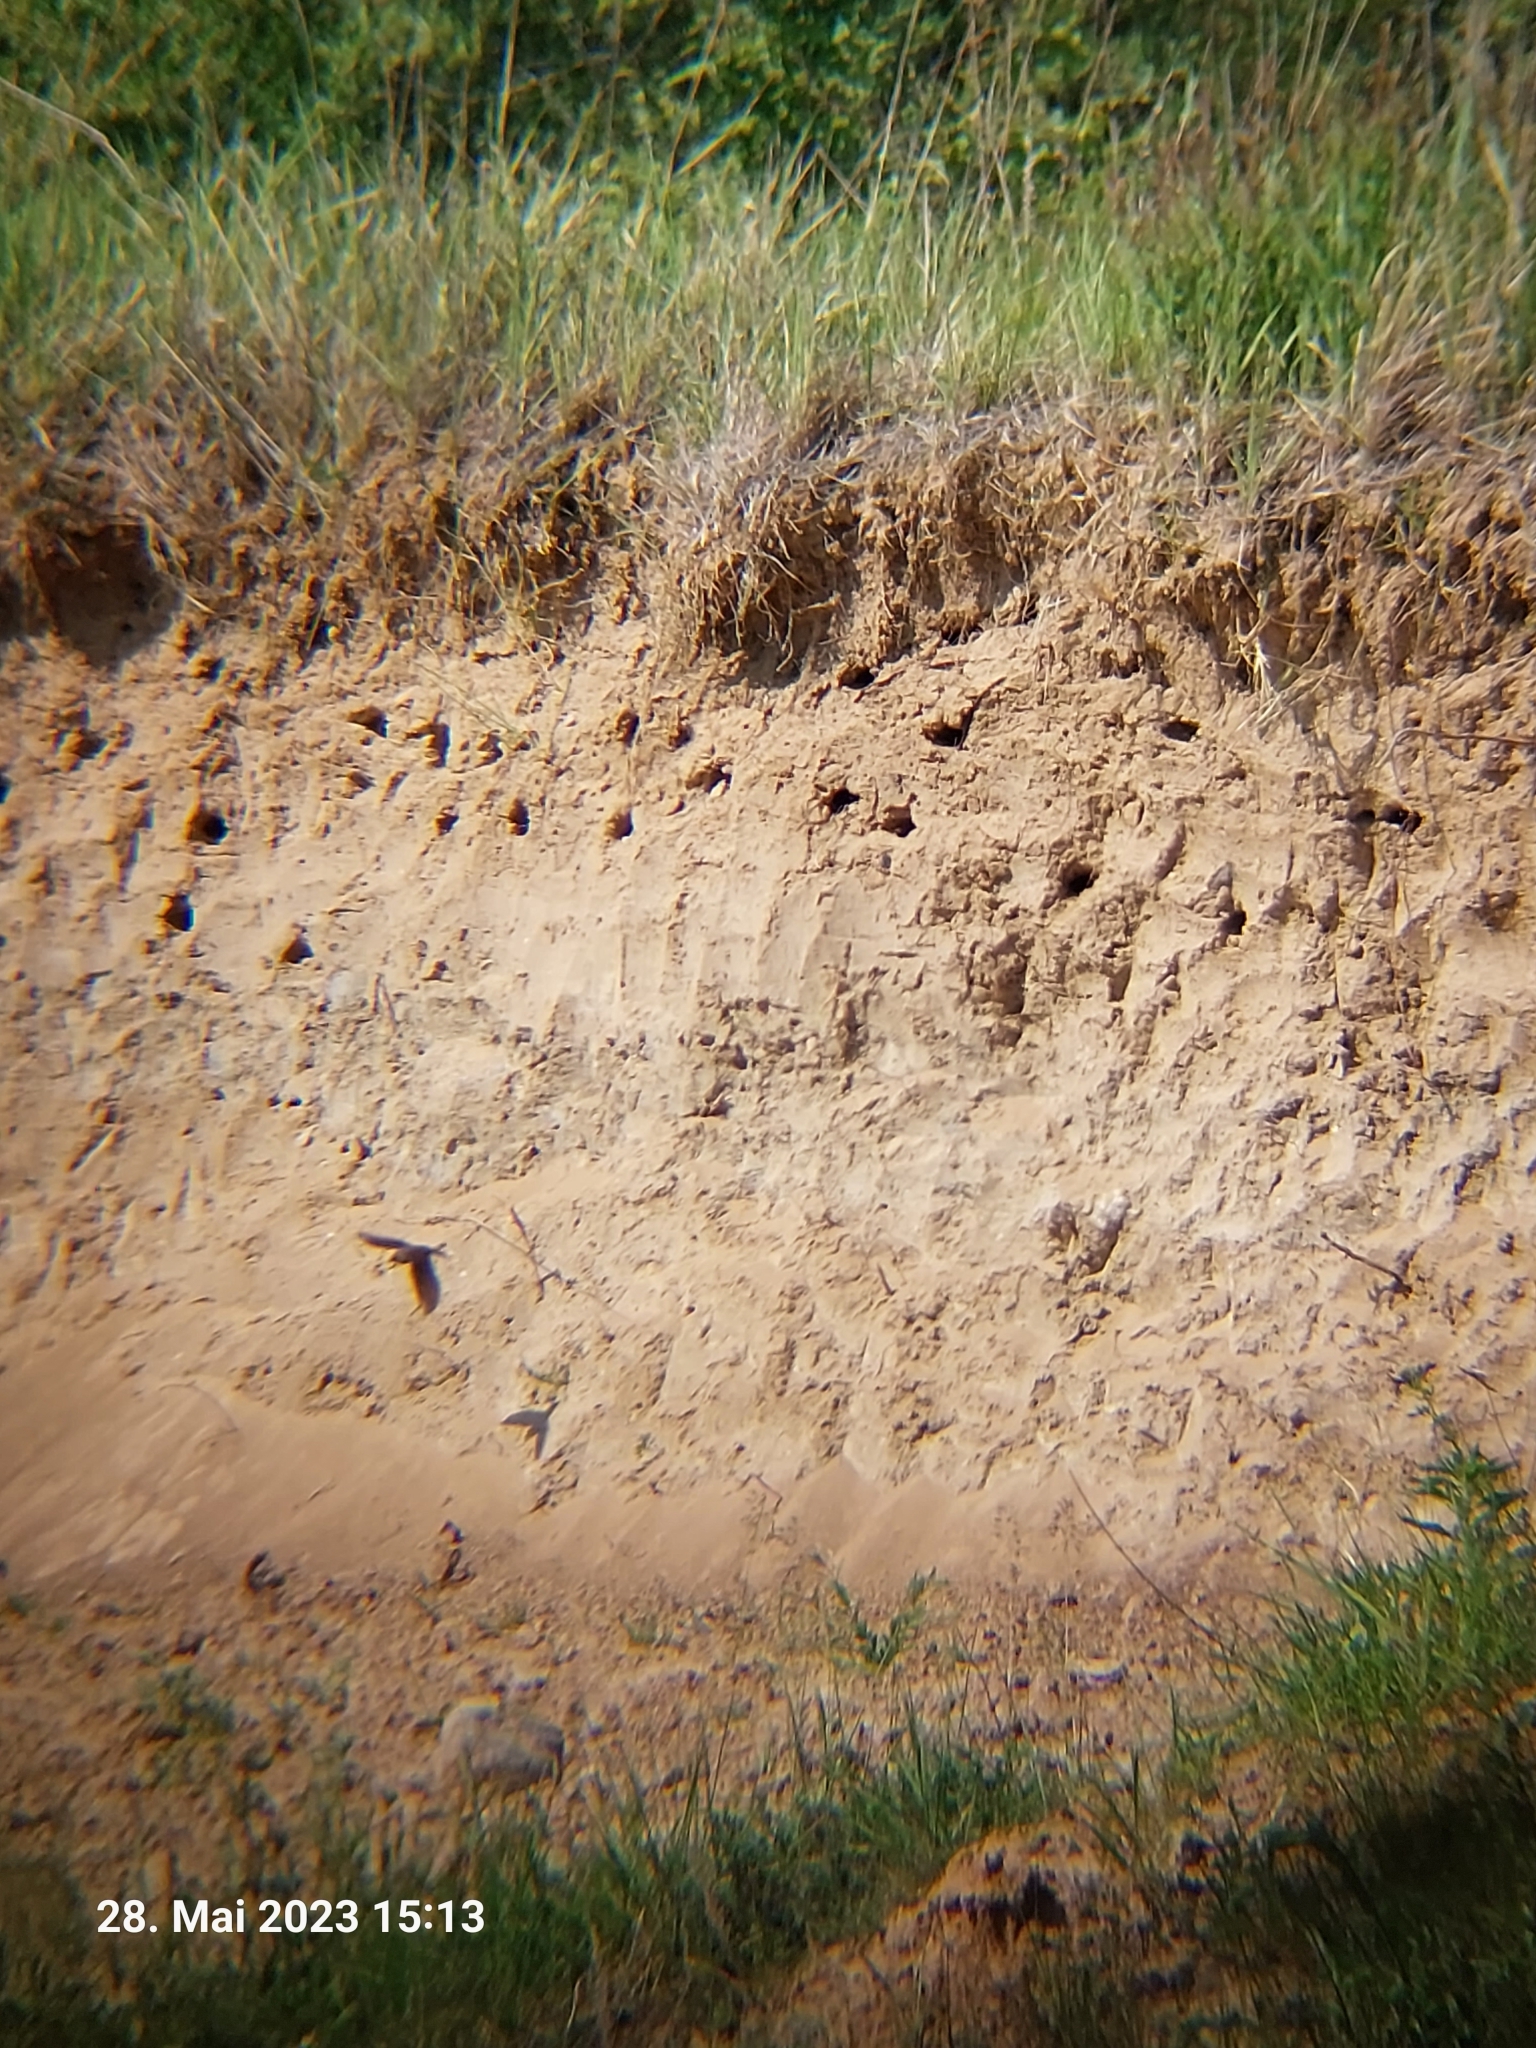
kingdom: Animalia
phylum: Chordata
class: Aves
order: Passeriformes
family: Hirundinidae
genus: Riparia
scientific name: Riparia riparia
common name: Sand martin
